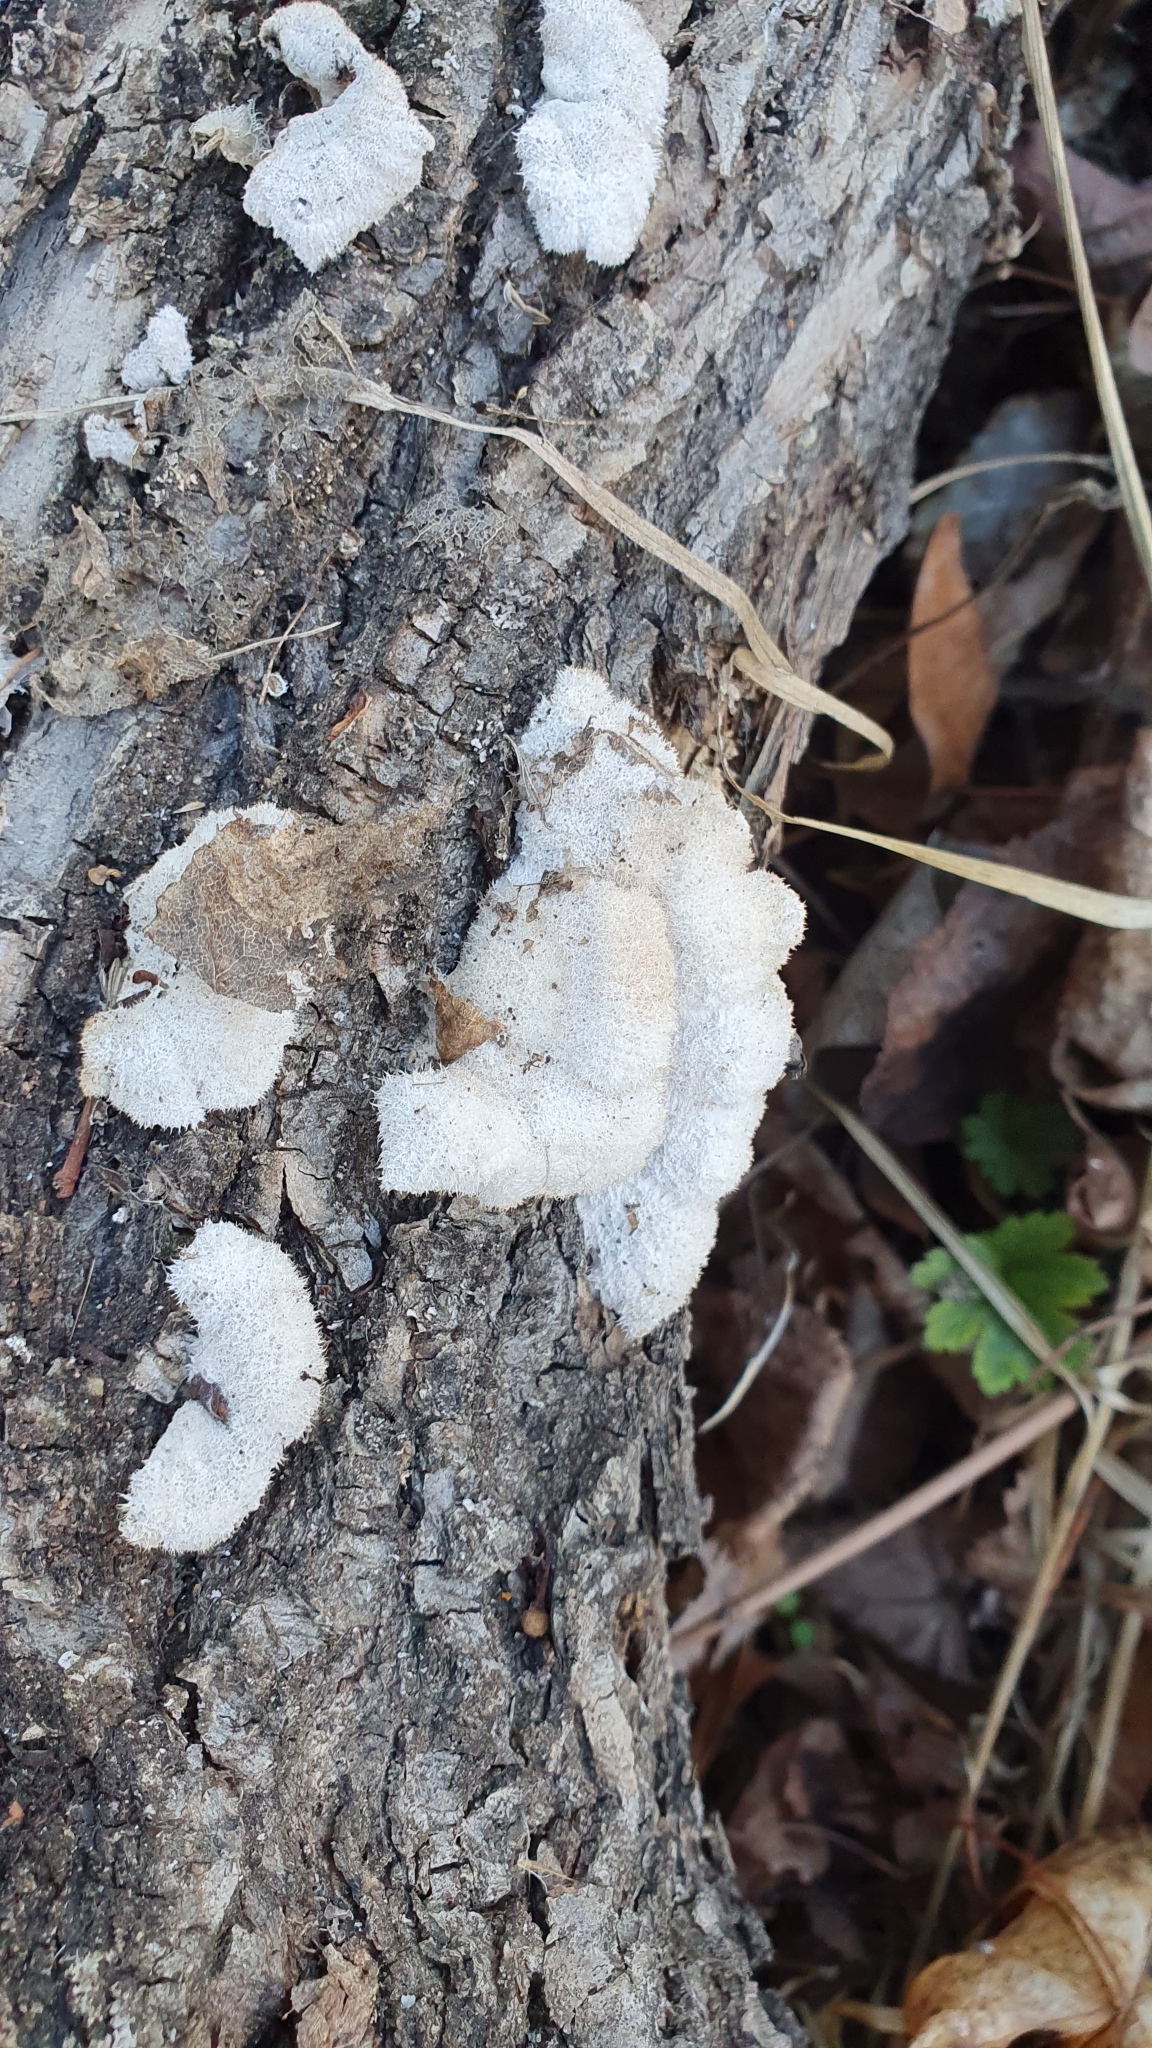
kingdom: Fungi
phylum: Basidiomycota
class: Agaricomycetes
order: Agaricales
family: Schizophyllaceae
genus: Schizophyllum
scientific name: Schizophyllum commune
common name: Common porecrust
